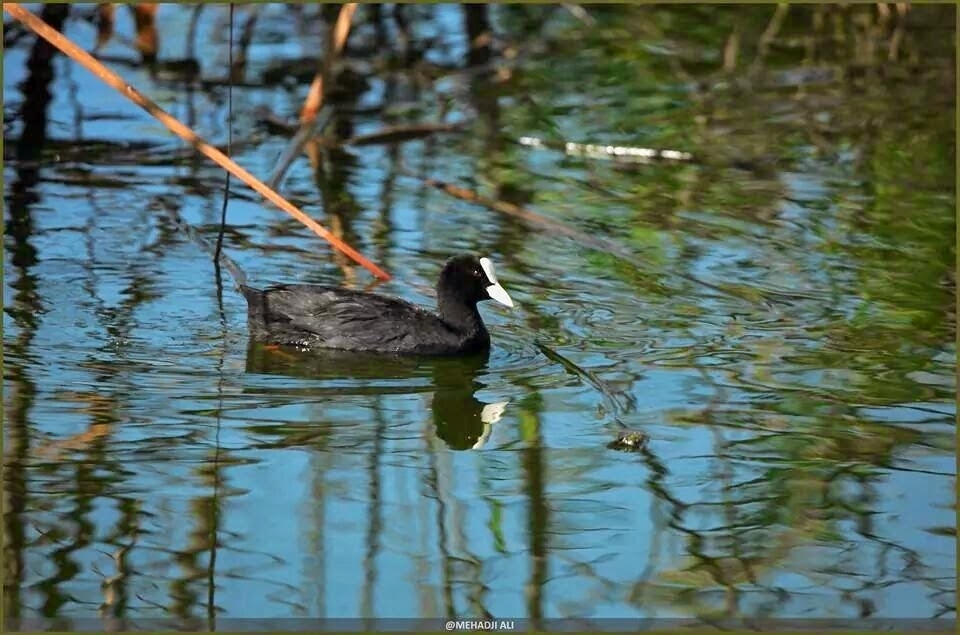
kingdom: Animalia
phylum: Chordata
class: Aves
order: Gruiformes
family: Rallidae
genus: Fulica
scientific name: Fulica atra
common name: Eurasian coot
